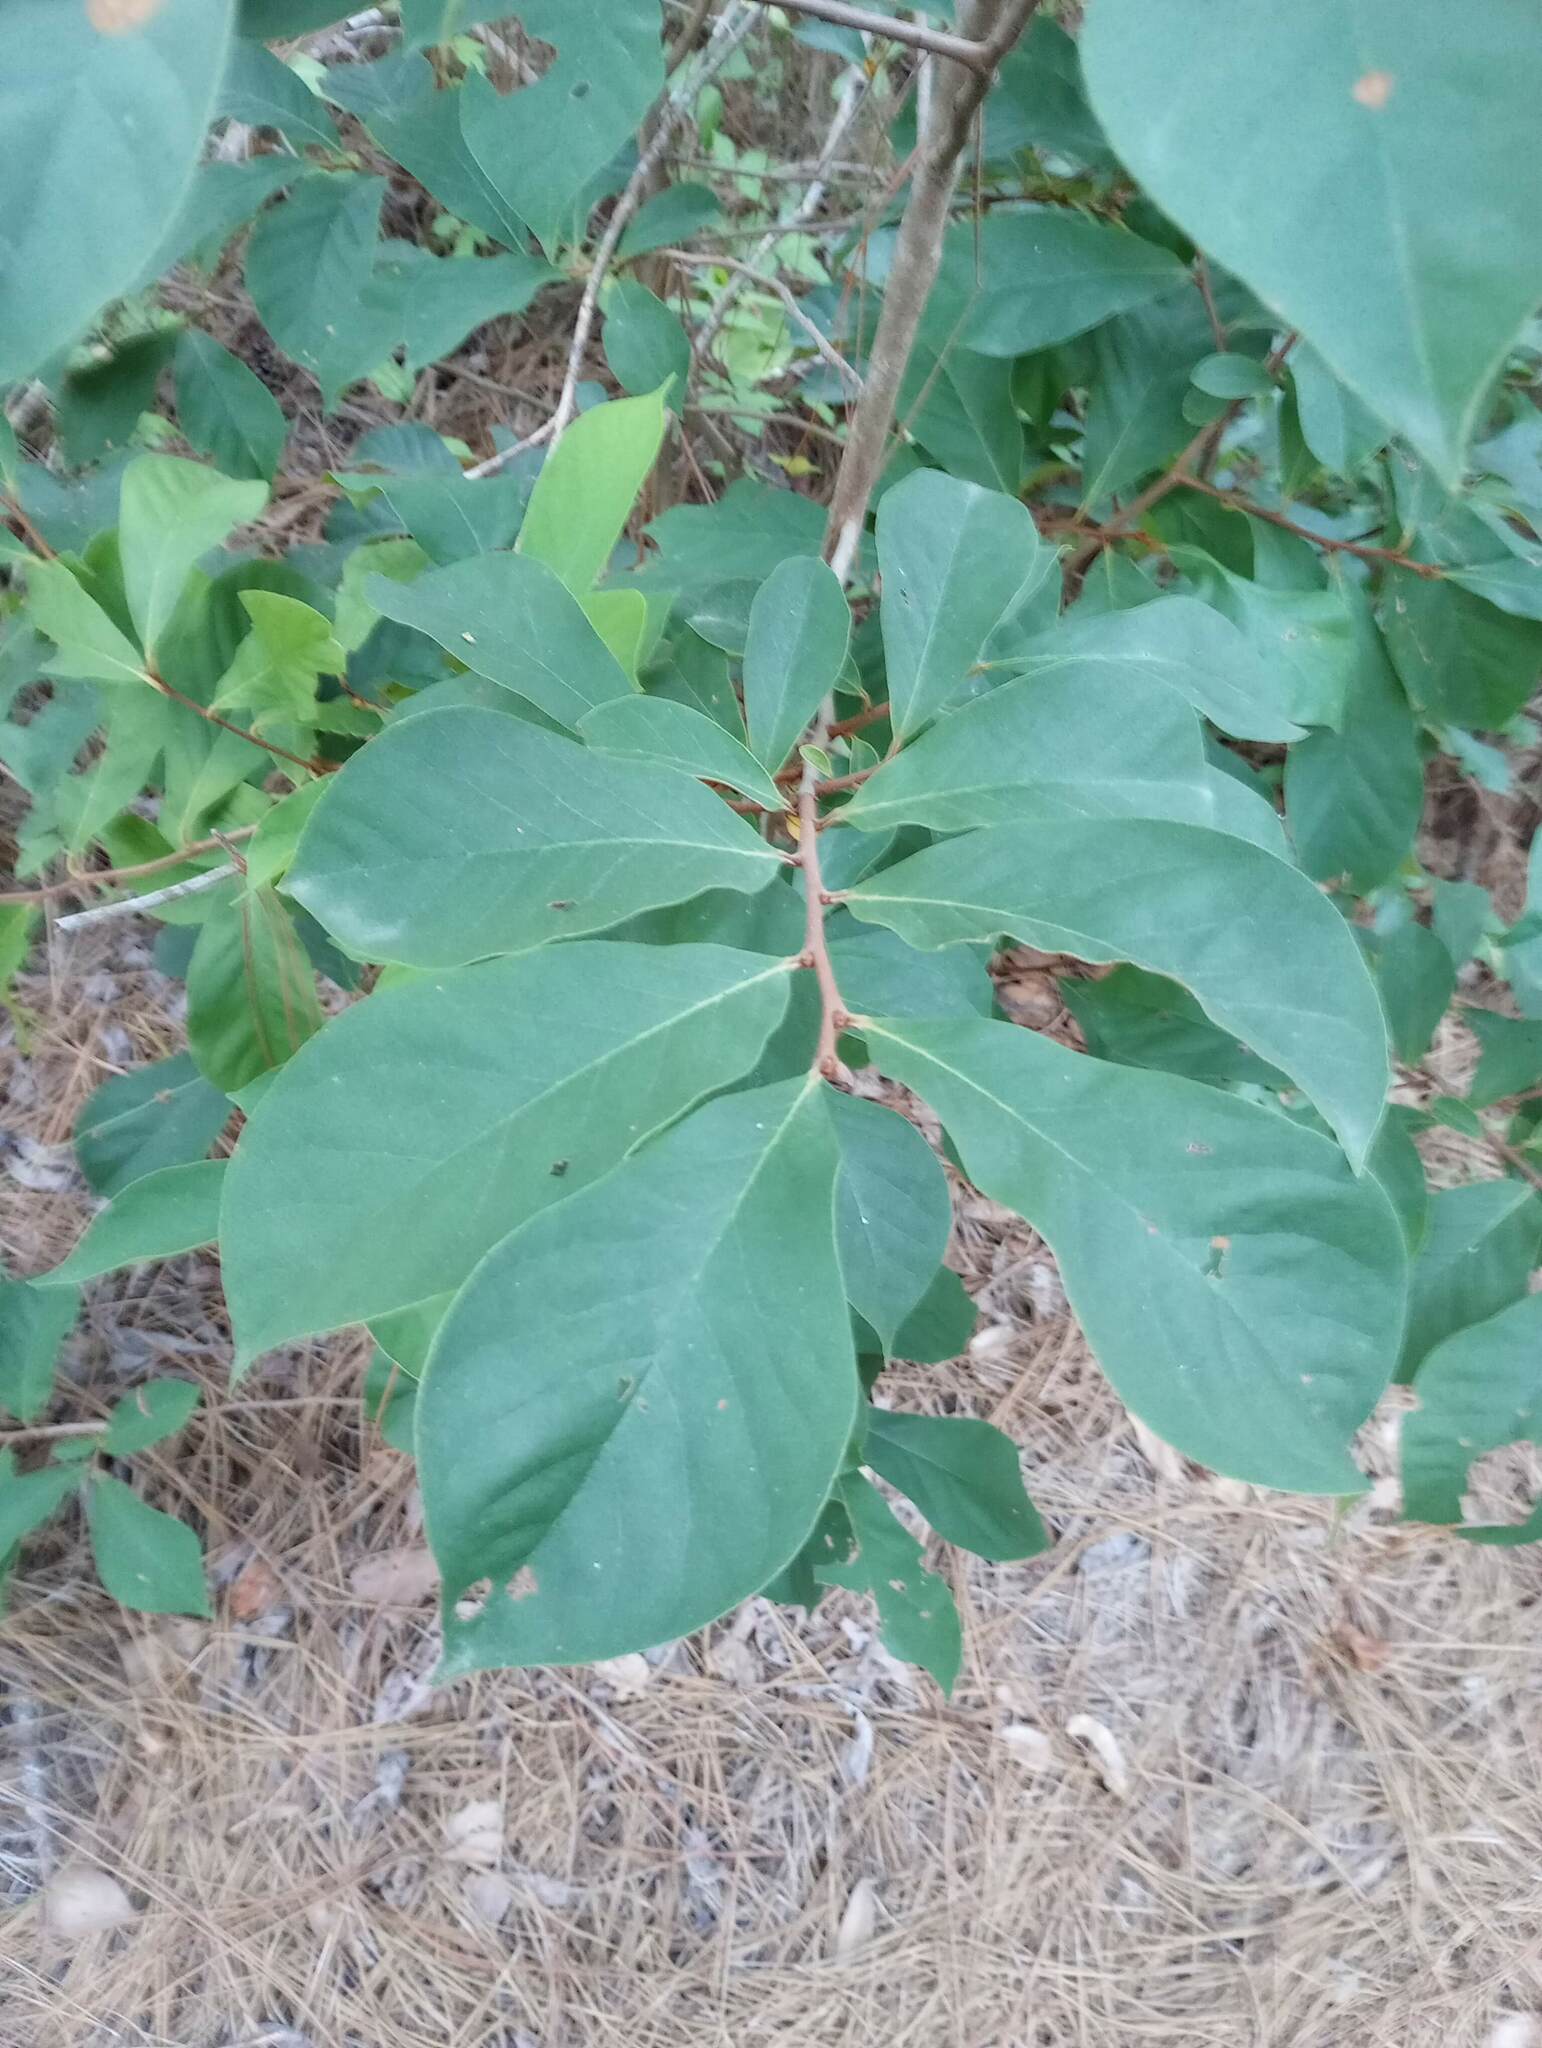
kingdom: Plantae
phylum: Tracheophyta
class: Magnoliopsida
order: Magnoliales
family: Annonaceae
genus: Asimina
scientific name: Asimina parviflora
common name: Dwarf pawpaw
